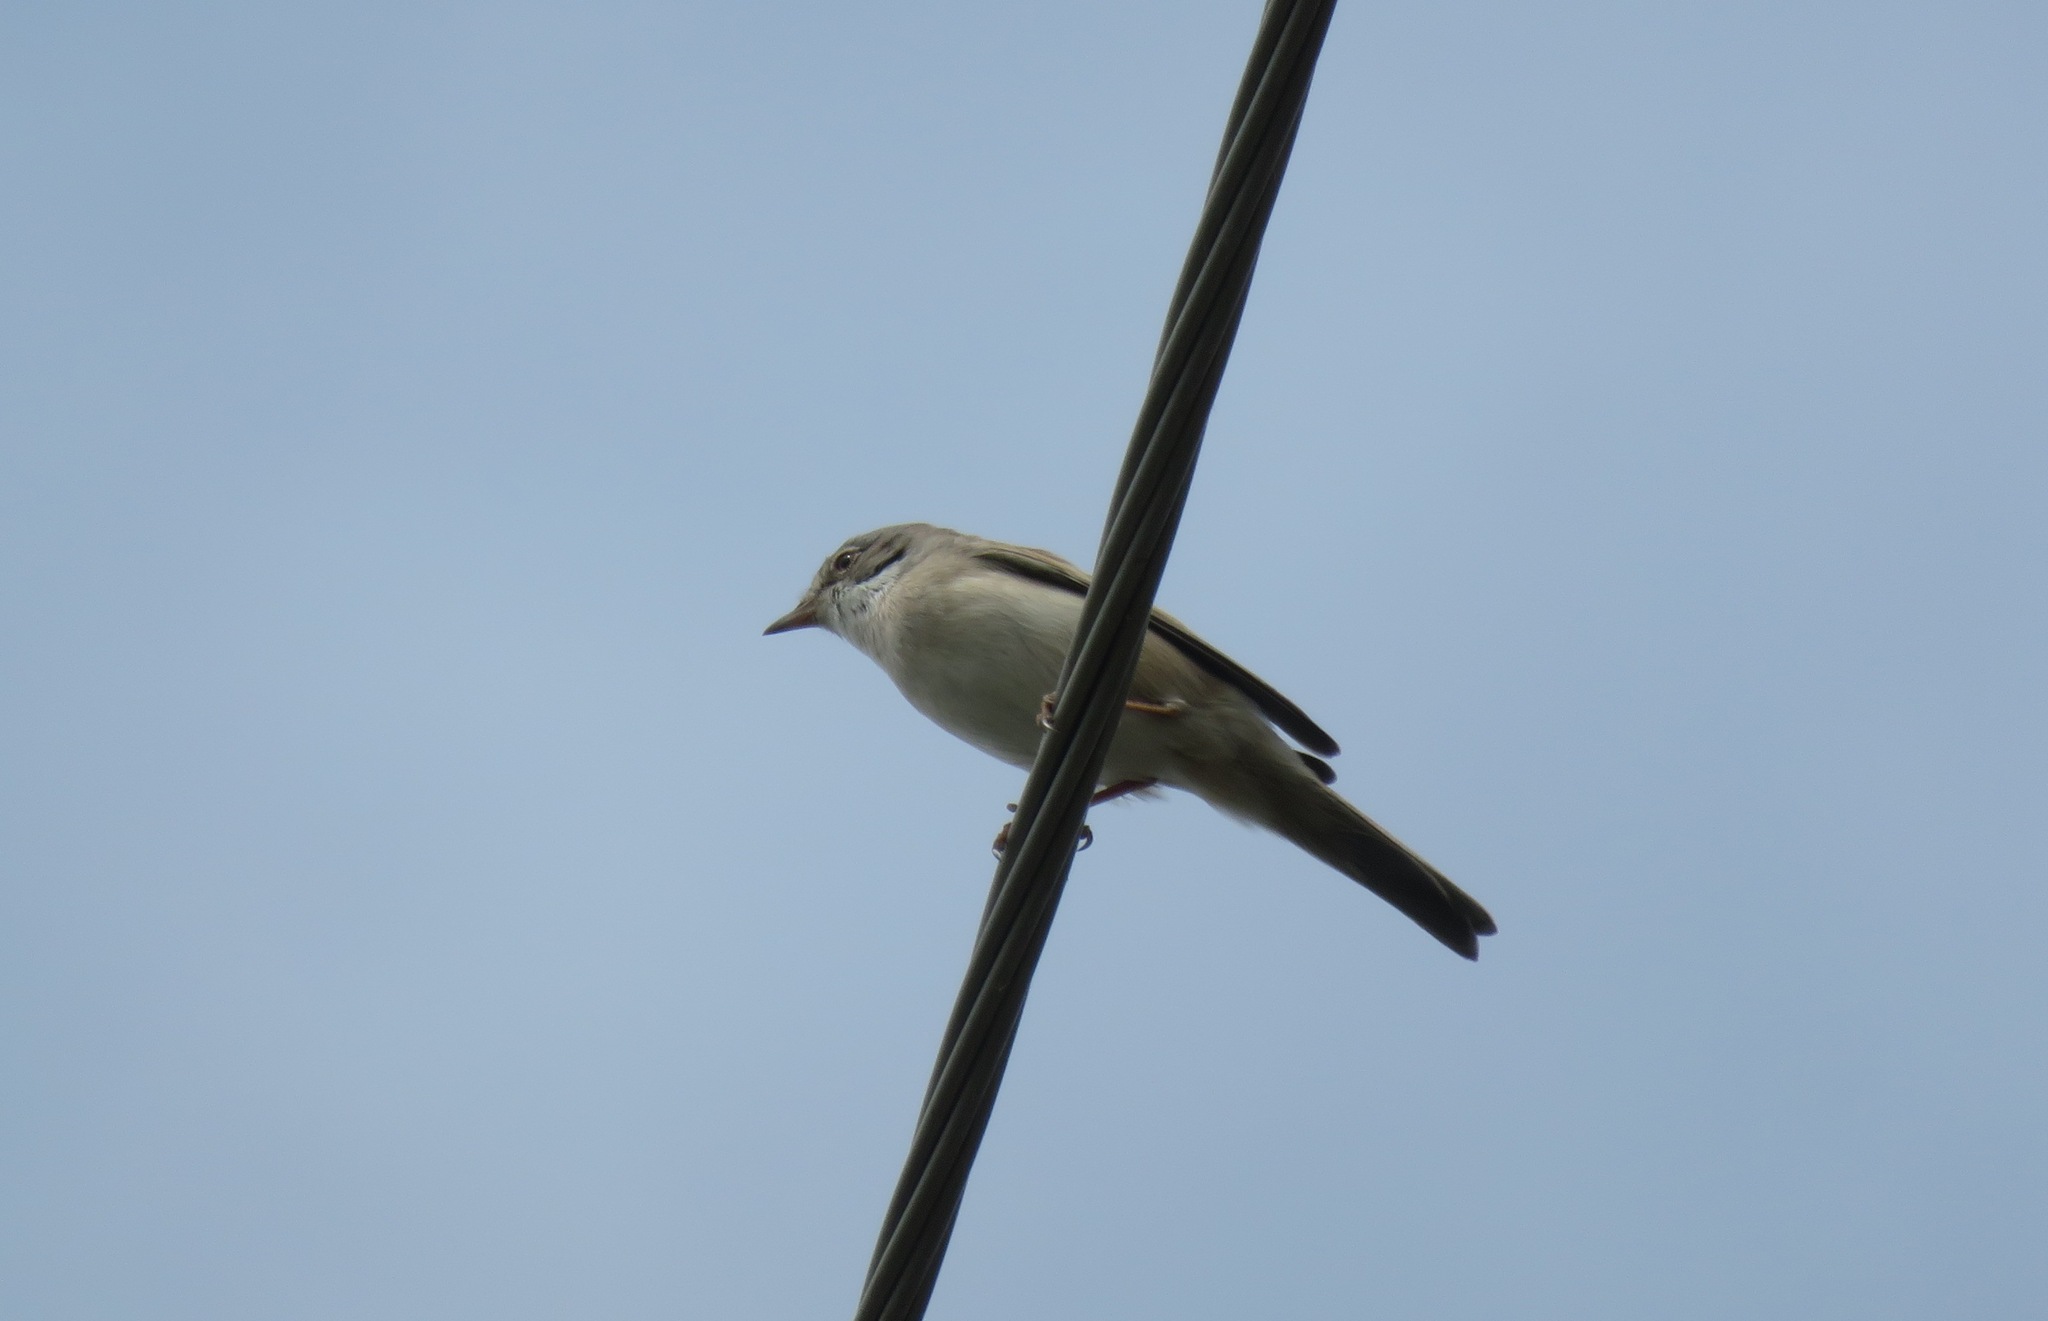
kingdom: Animalia
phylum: Chordata
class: Aves
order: Passeriformes
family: Sylviidae
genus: Sylvia
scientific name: Sylvia communis
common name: Common whitethroat
